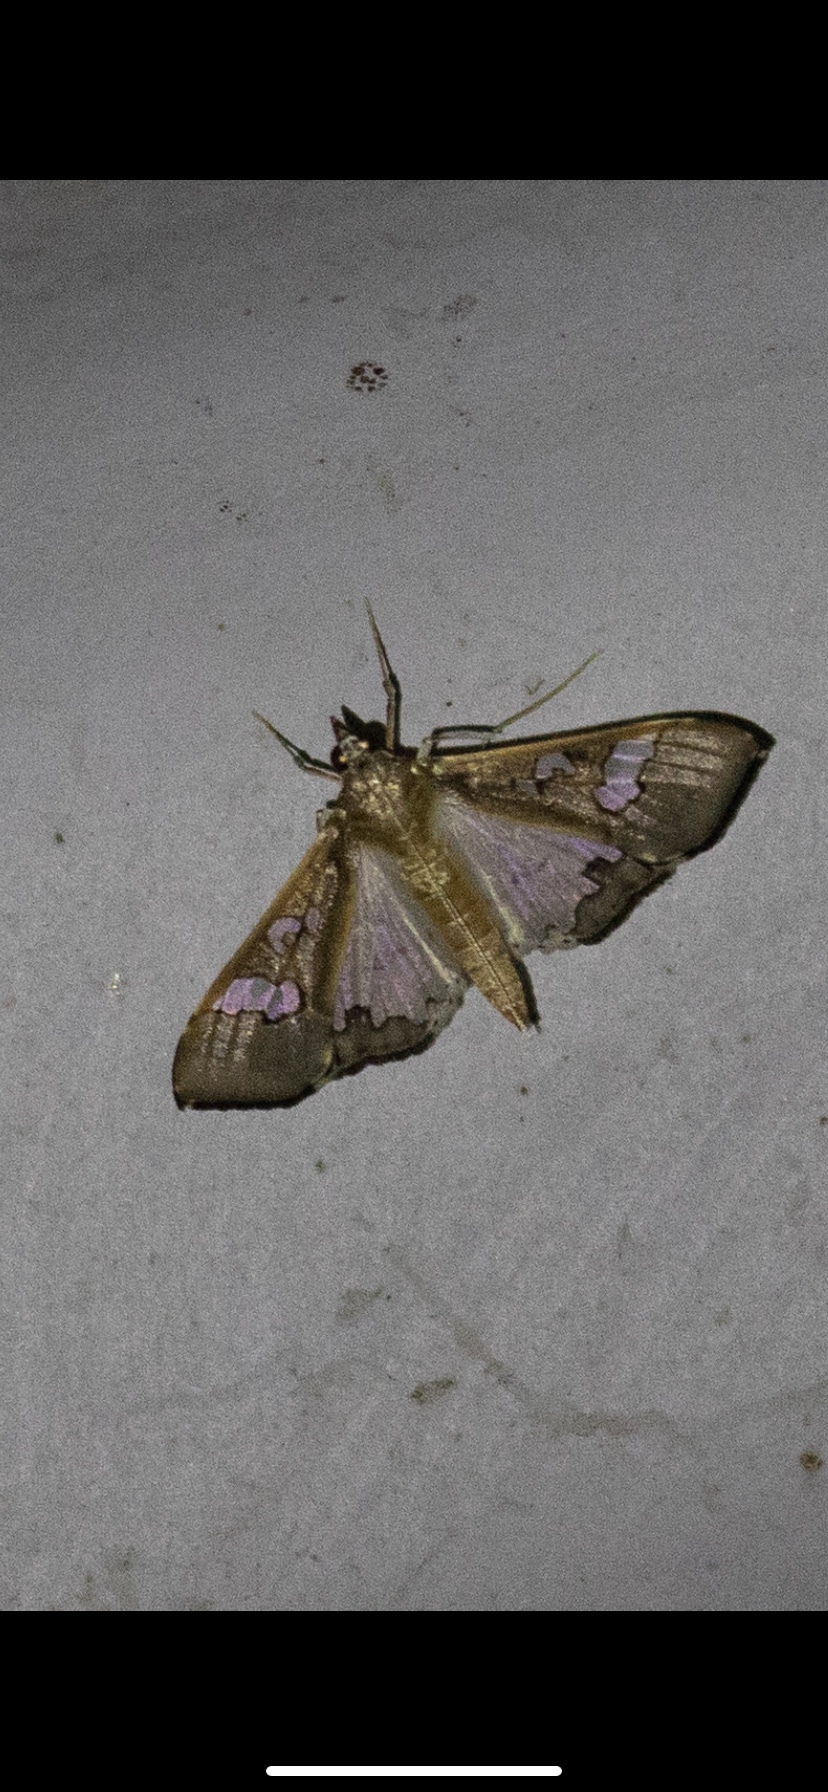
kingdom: Animalia
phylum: Arthropoda
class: Insecta
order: Lepidoptera
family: Crambidae
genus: Maruca
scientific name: Maruca vitrata
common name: Maruca pod borer
